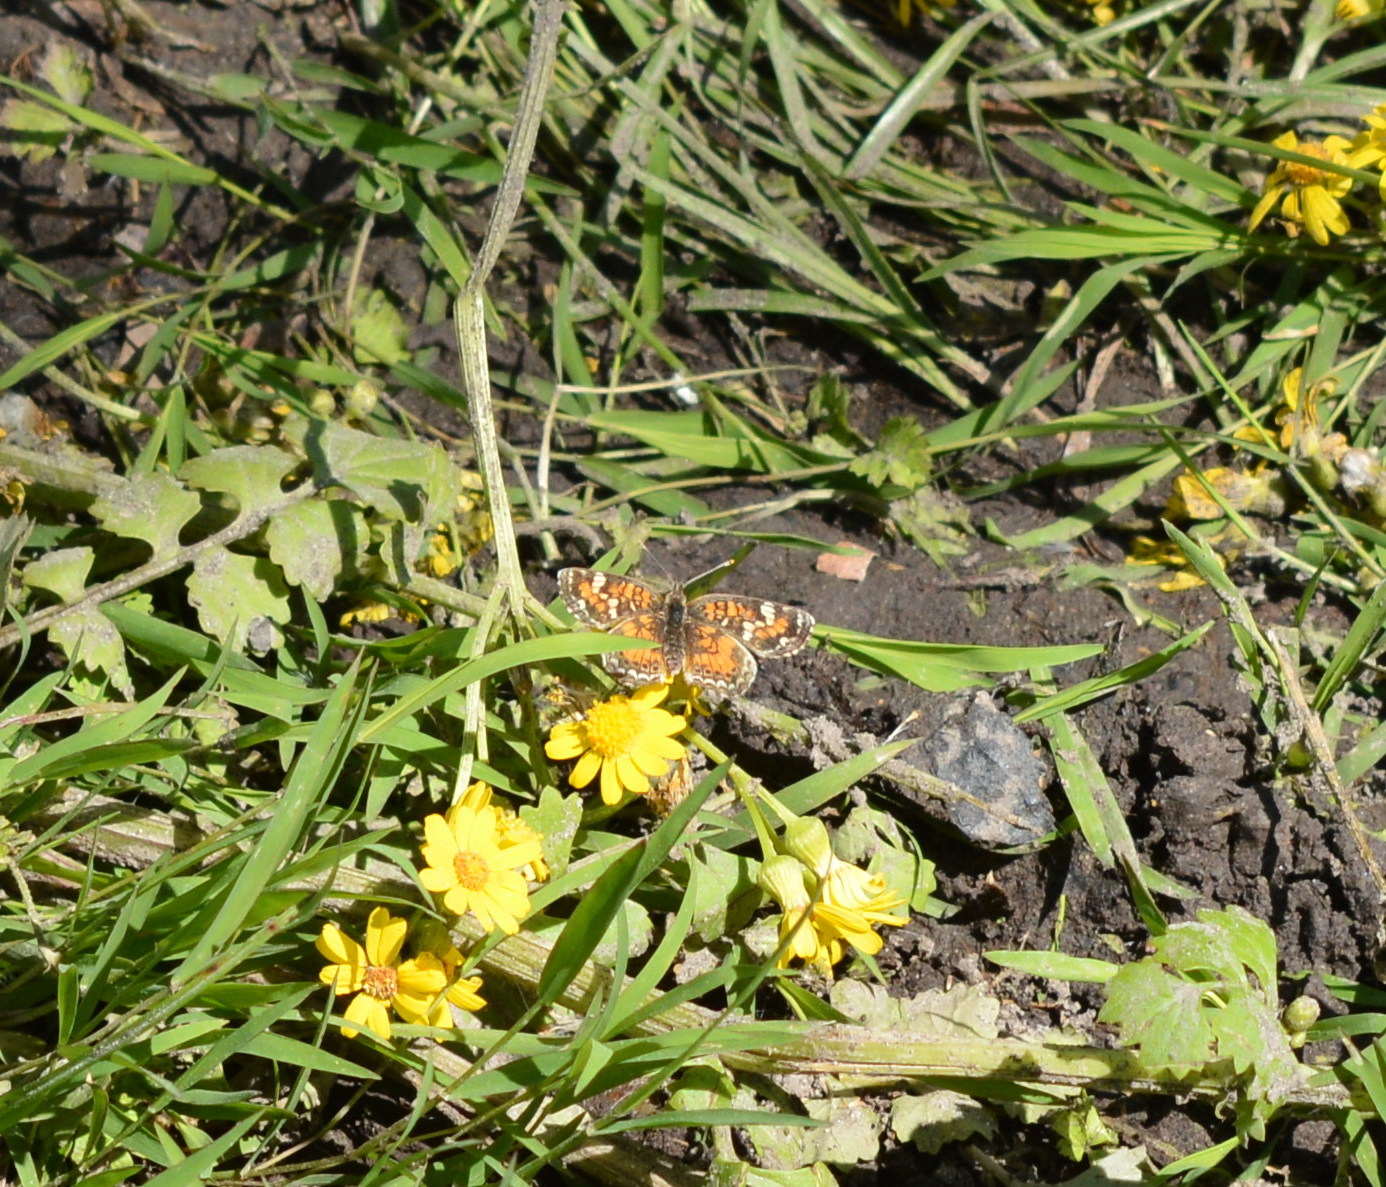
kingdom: Animalia
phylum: Arthropoda
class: Insecta
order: Lepidoptera
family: Nymphalidae
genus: Phyciodes
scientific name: Phyciodes phaon
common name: Phaon crescent
